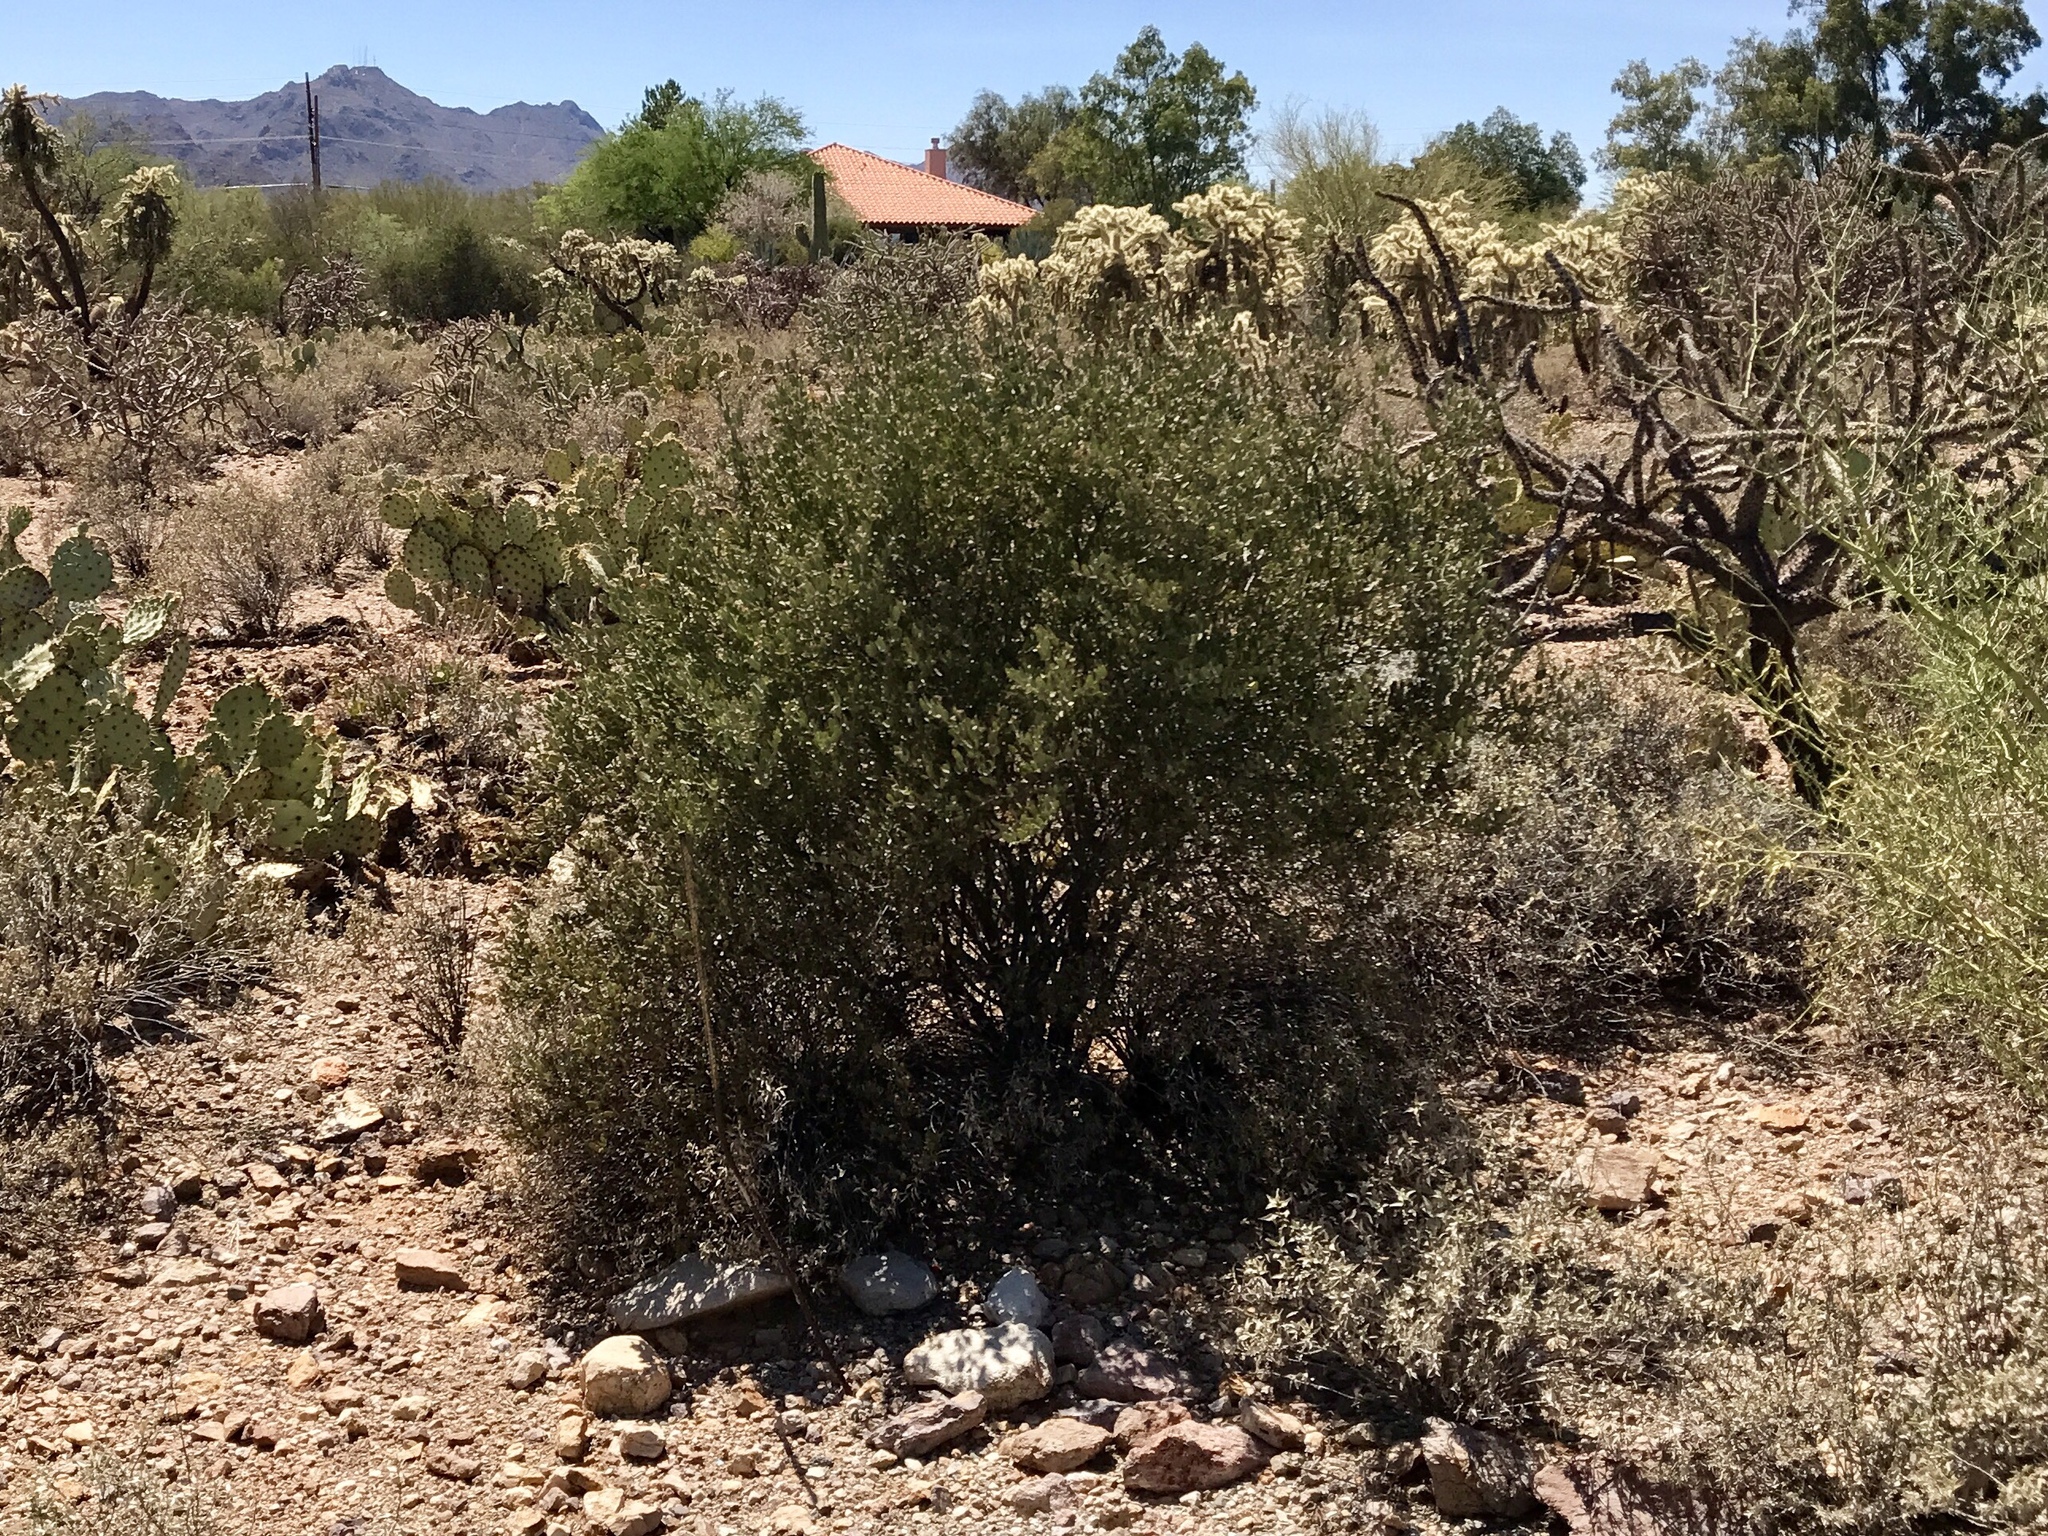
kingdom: Plantae
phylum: Tracheophyta
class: Magnoliopsida
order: Caryophyllales
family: Simmondsiaceae
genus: Simmondsia
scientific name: Simmondsia chinensis
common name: Jojoba
